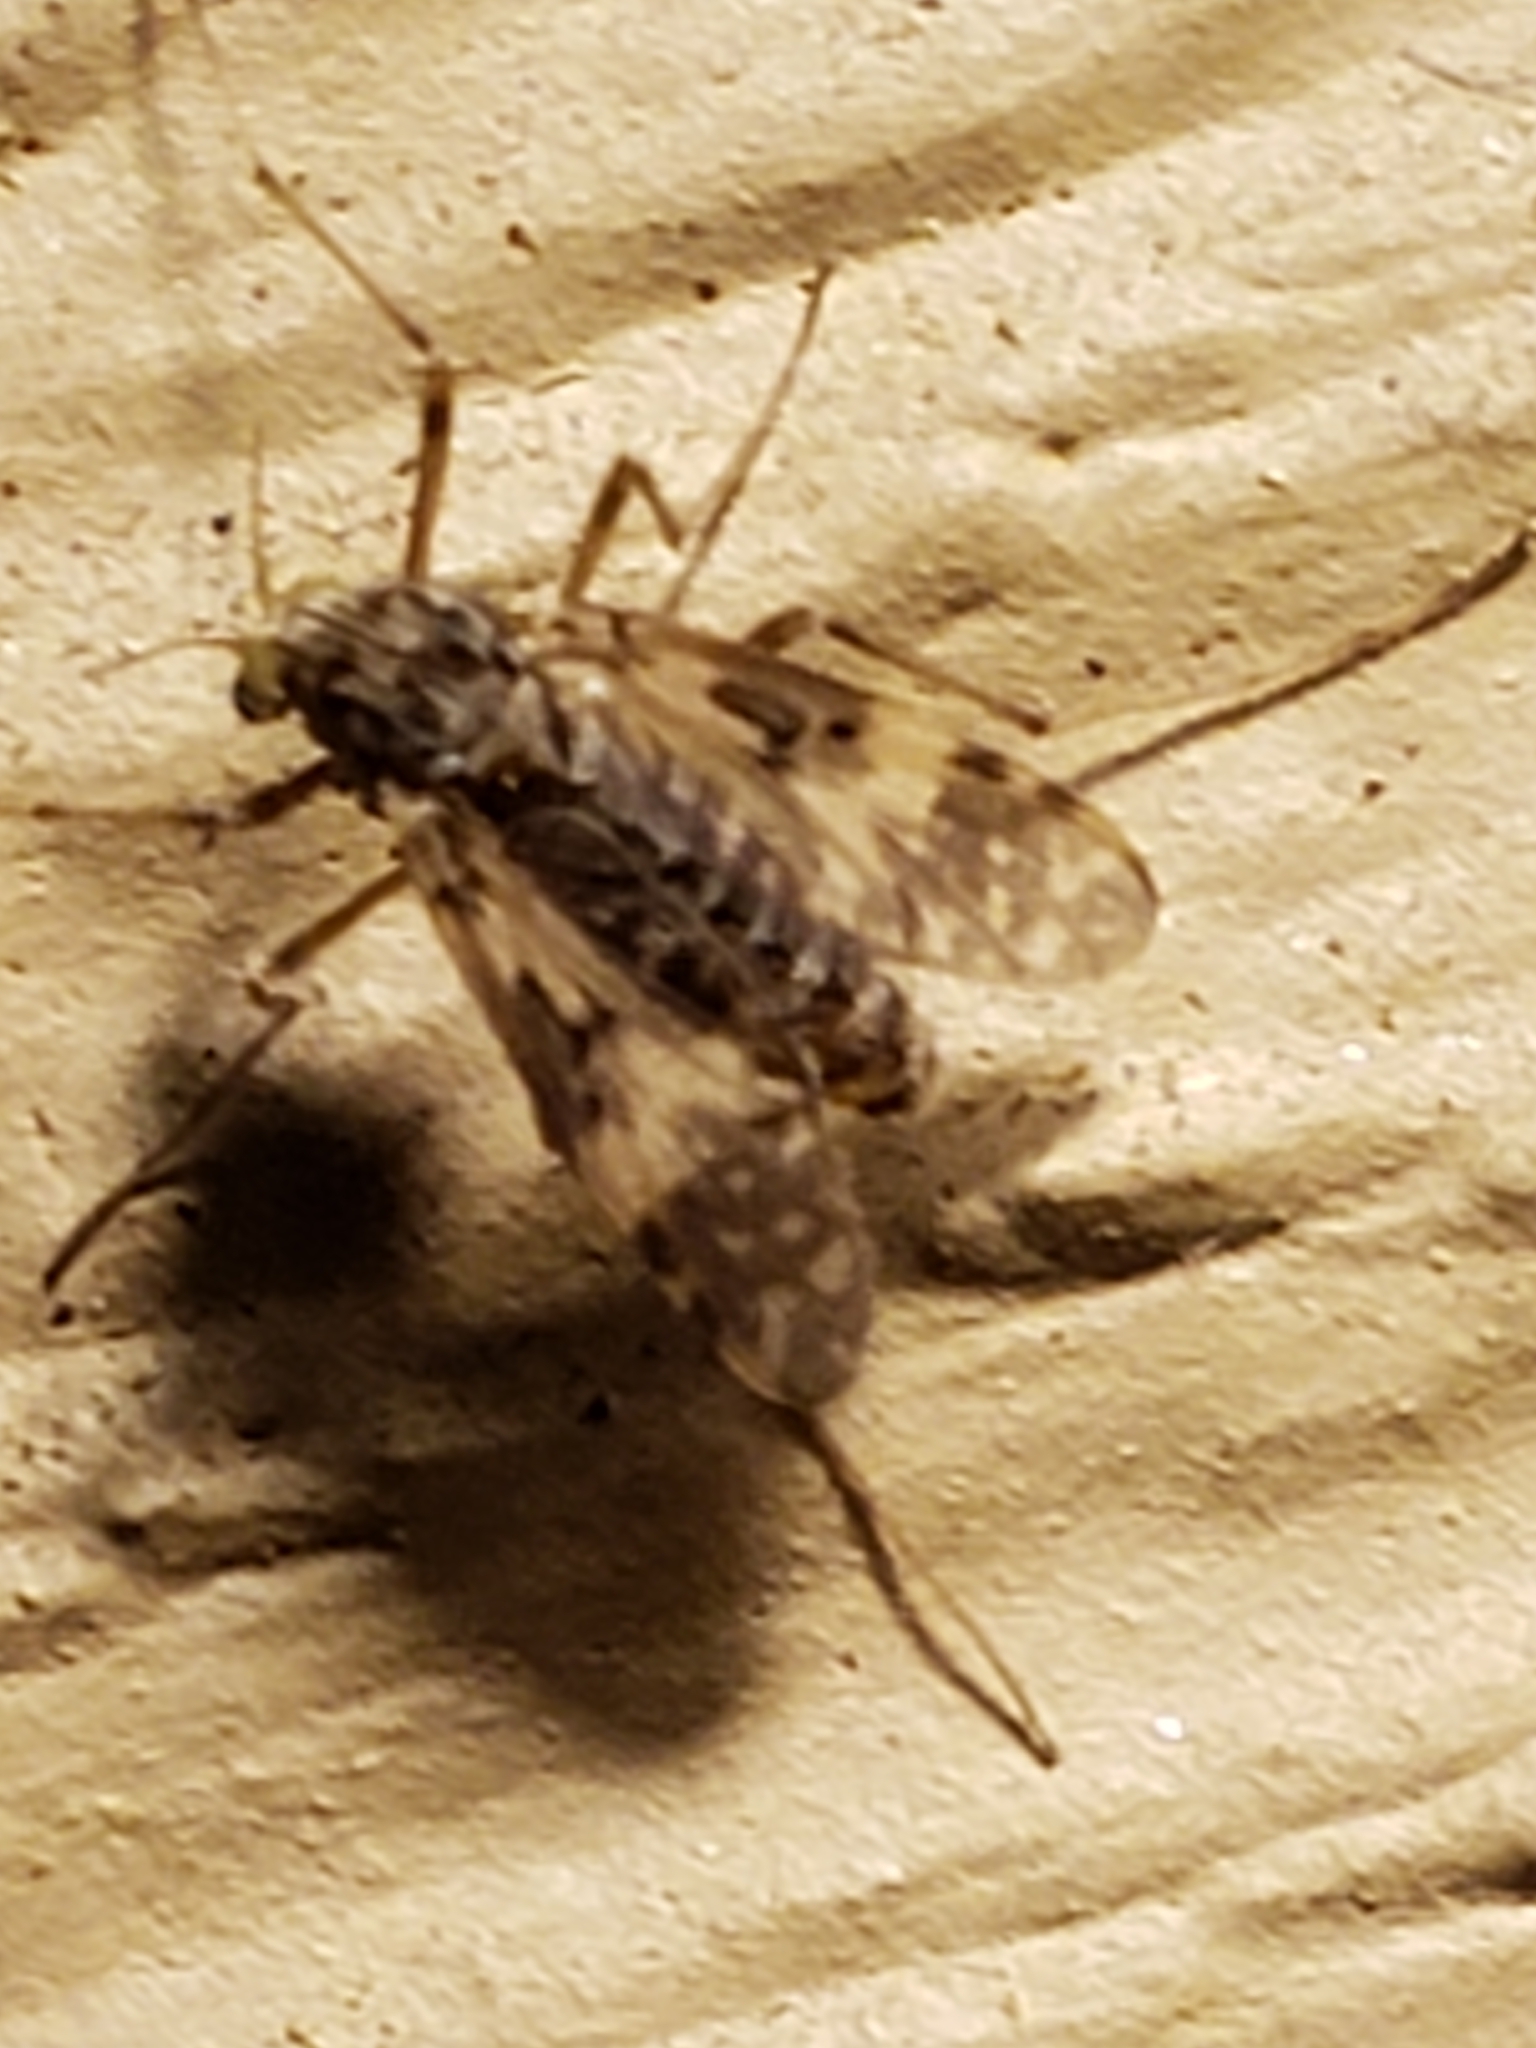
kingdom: Animalia
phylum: Arthropoda
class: Insecta
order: Diptera
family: Chironomidae
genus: Psectrotanypus
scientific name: Psectrotanypus dyari
